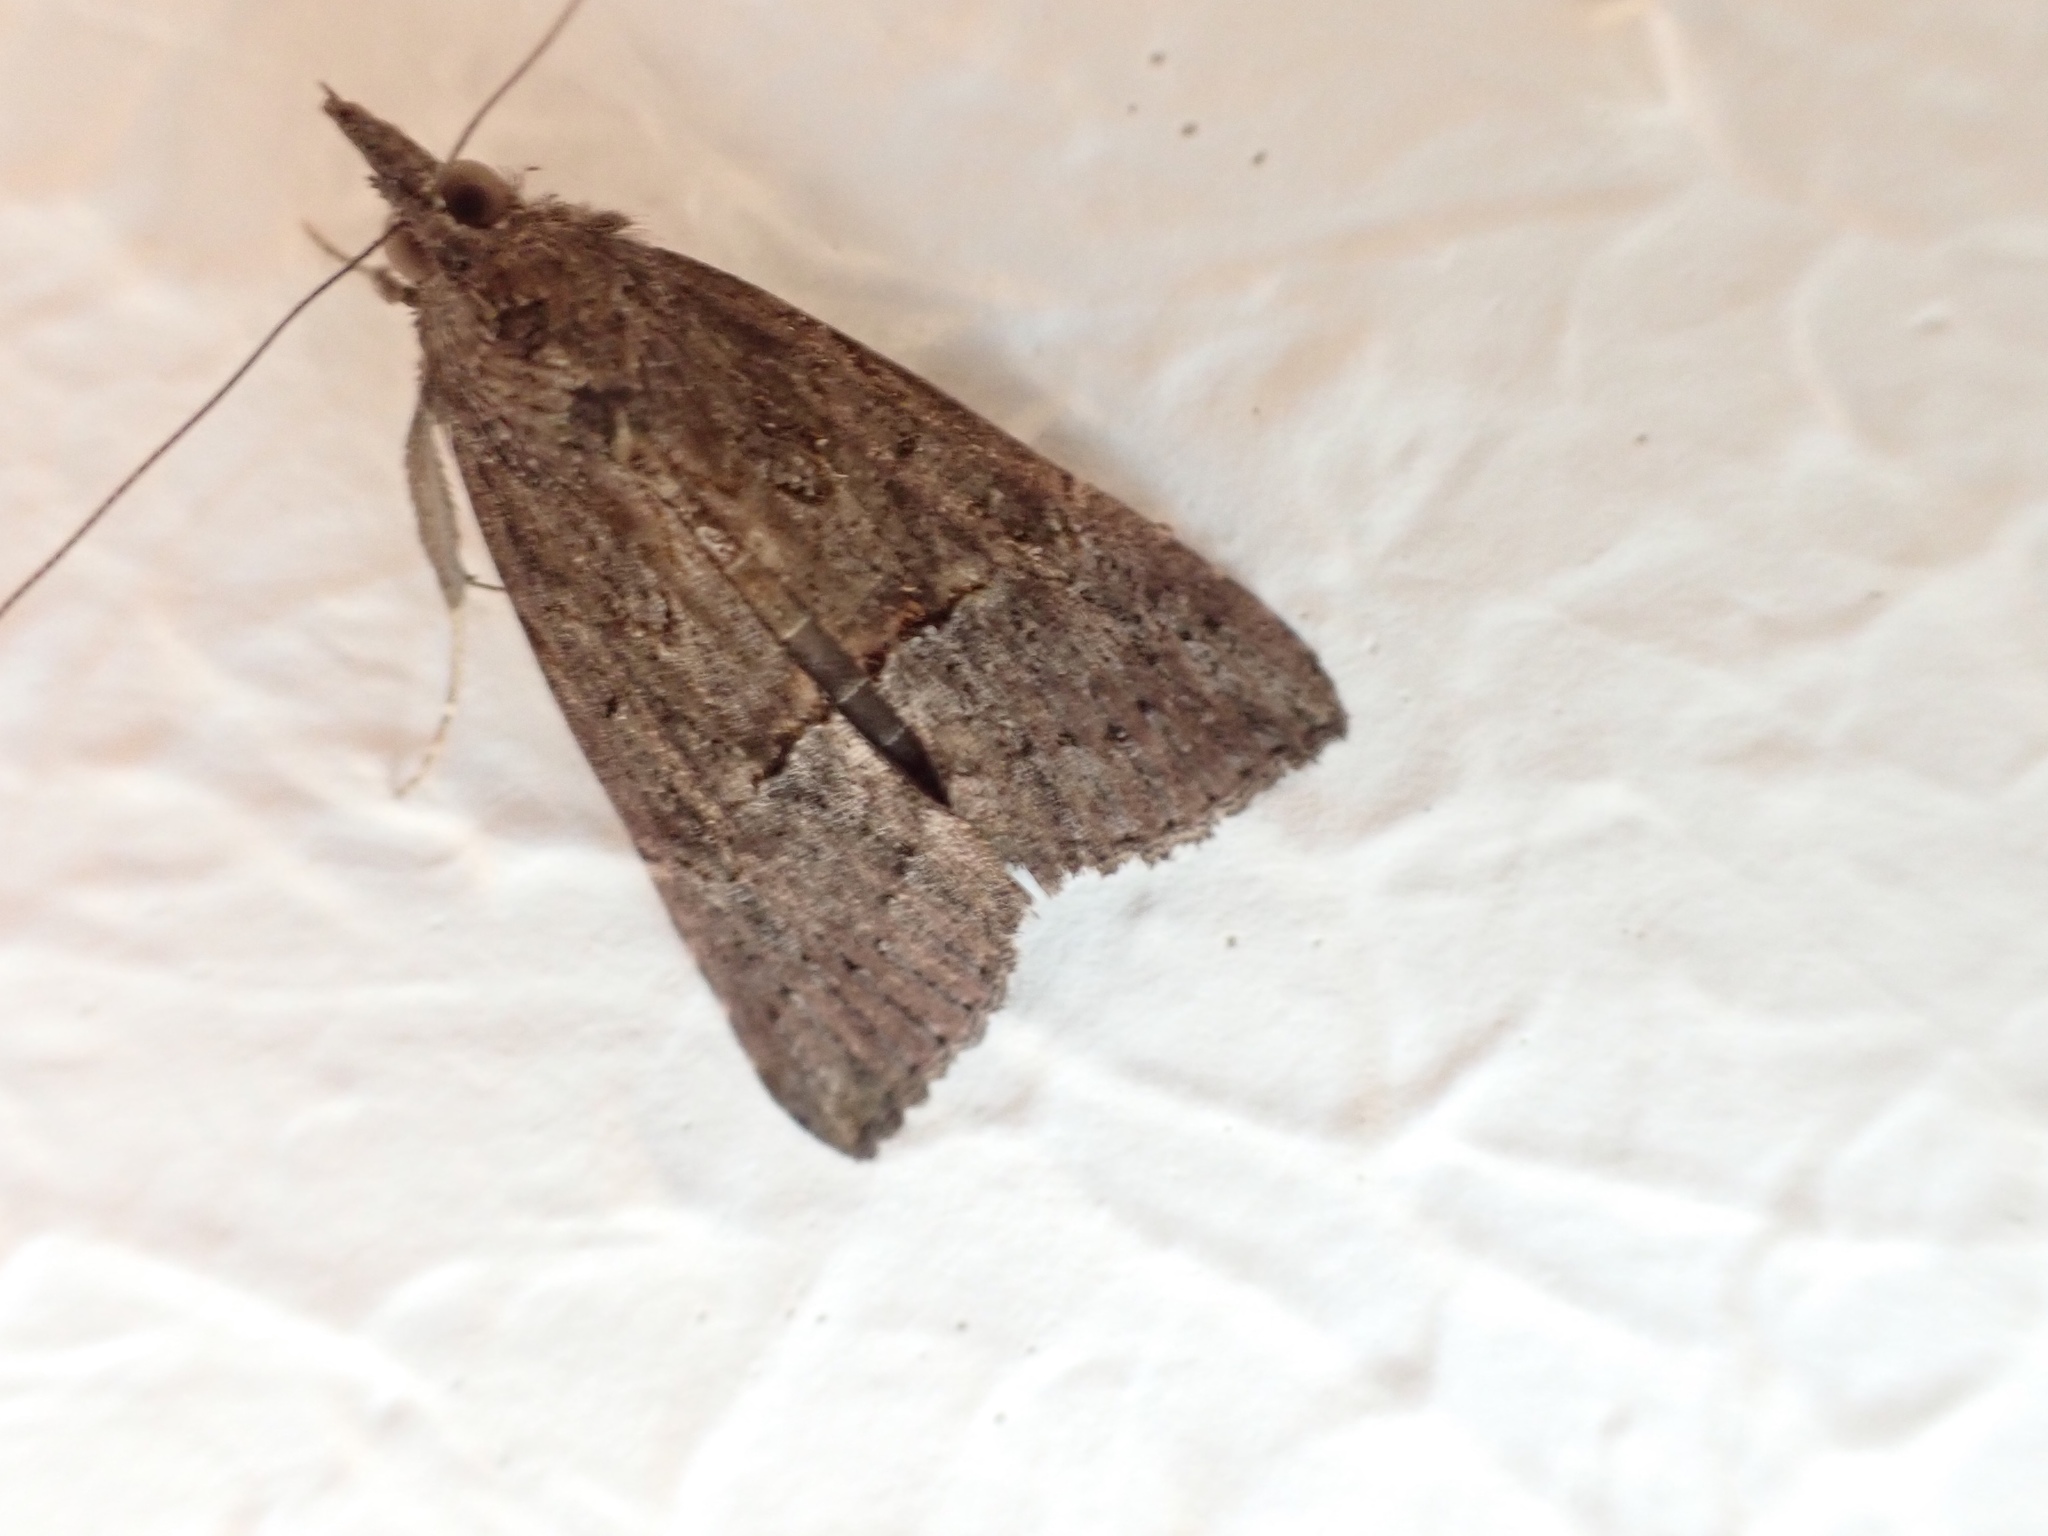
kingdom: Animalia
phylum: Arthropoda
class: Insecta
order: Lepidoptera
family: Erebidae
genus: Hypena
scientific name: Hypena scabra
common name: Green cloverworm
